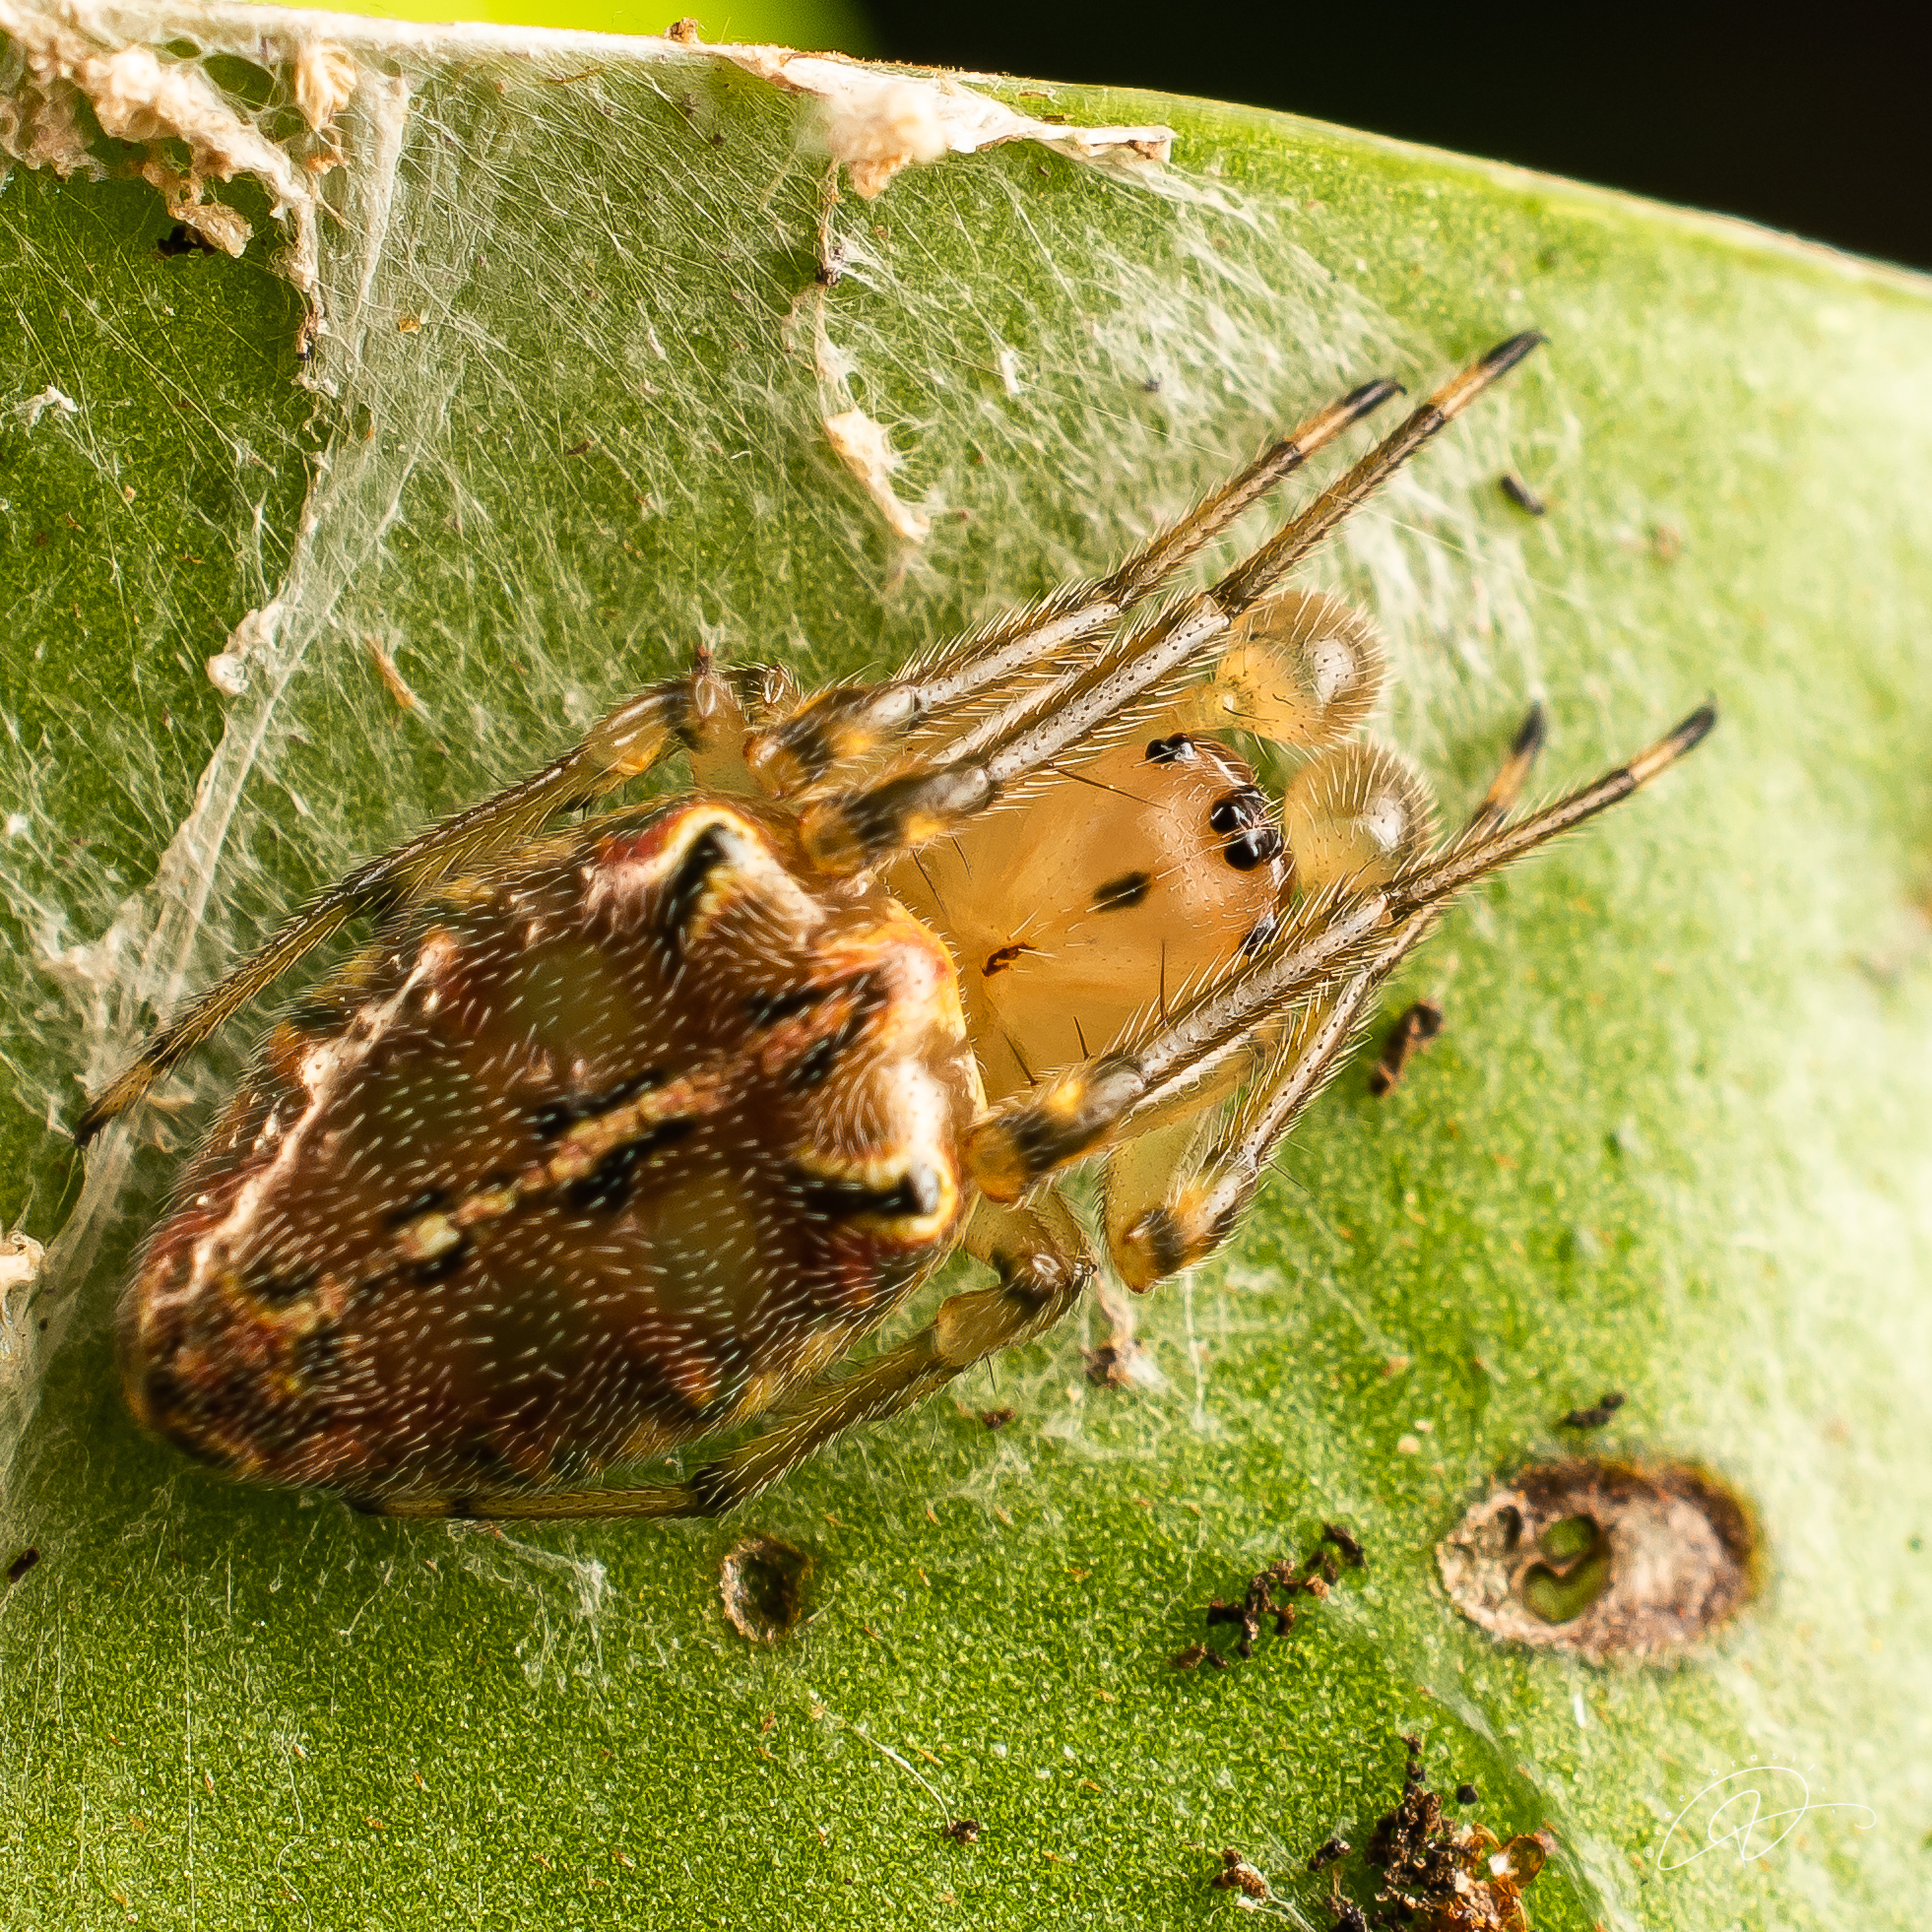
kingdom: Animalia
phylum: Arthropoda
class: Arachnida
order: Araneae
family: Araneidae
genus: Alpaida
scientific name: Alpaida scriba
